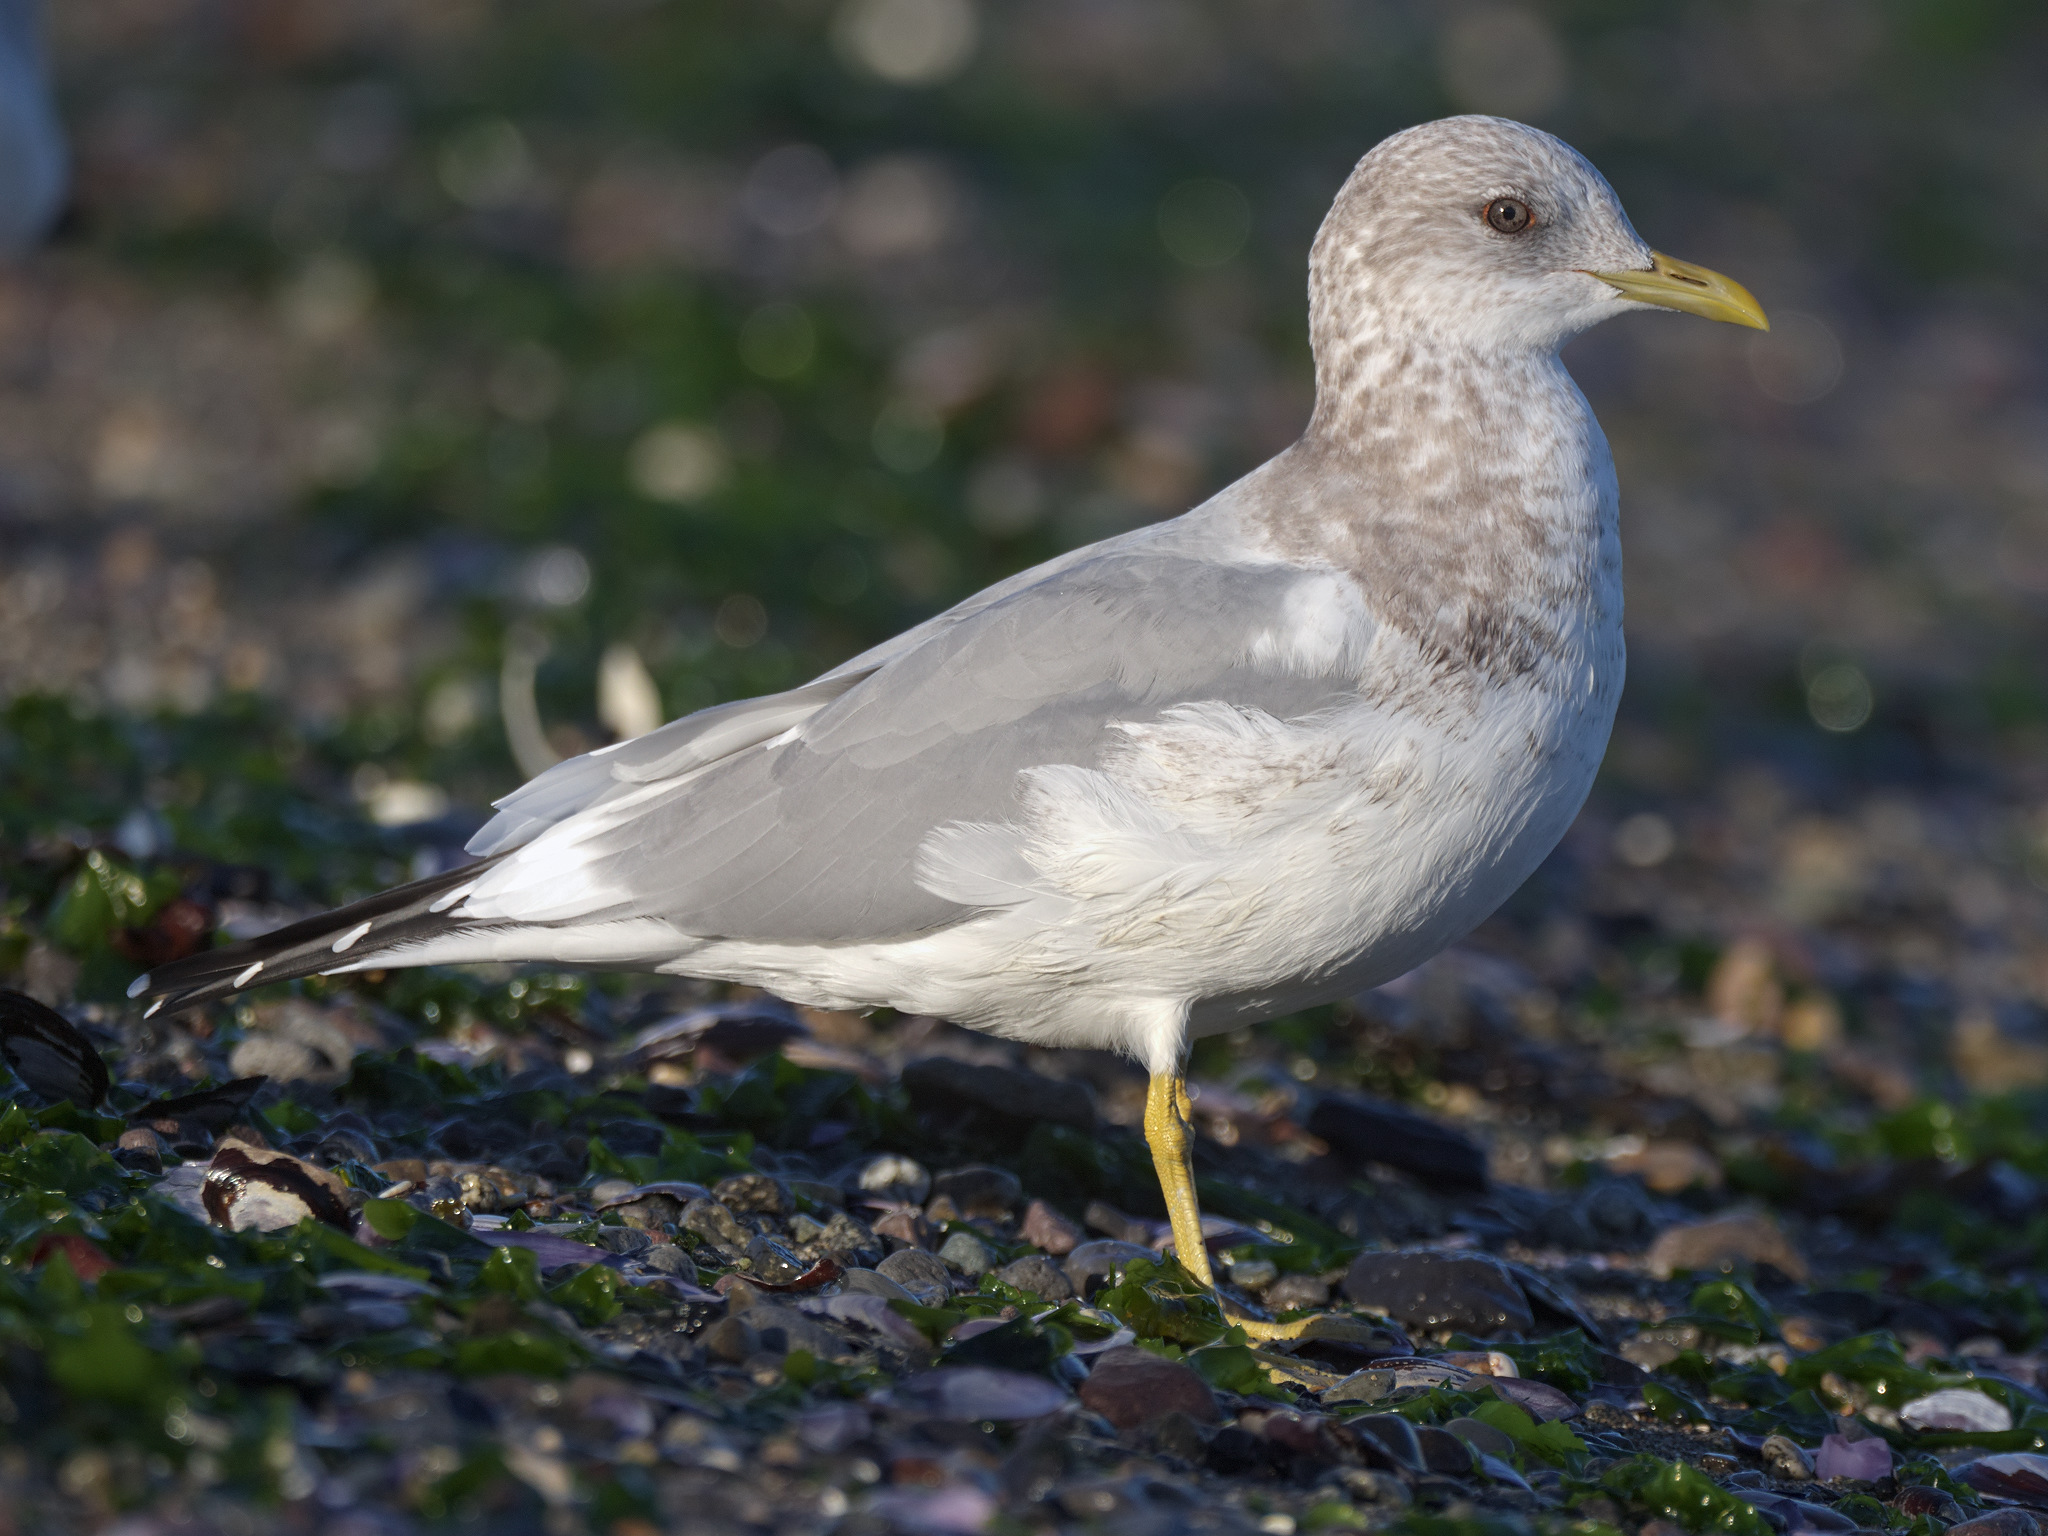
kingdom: Animalia
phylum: Chordata
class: Aves
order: Charadriiformes
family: Laridae
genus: Larus
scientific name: Larus brachyrhynchus
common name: Short-billed gull
